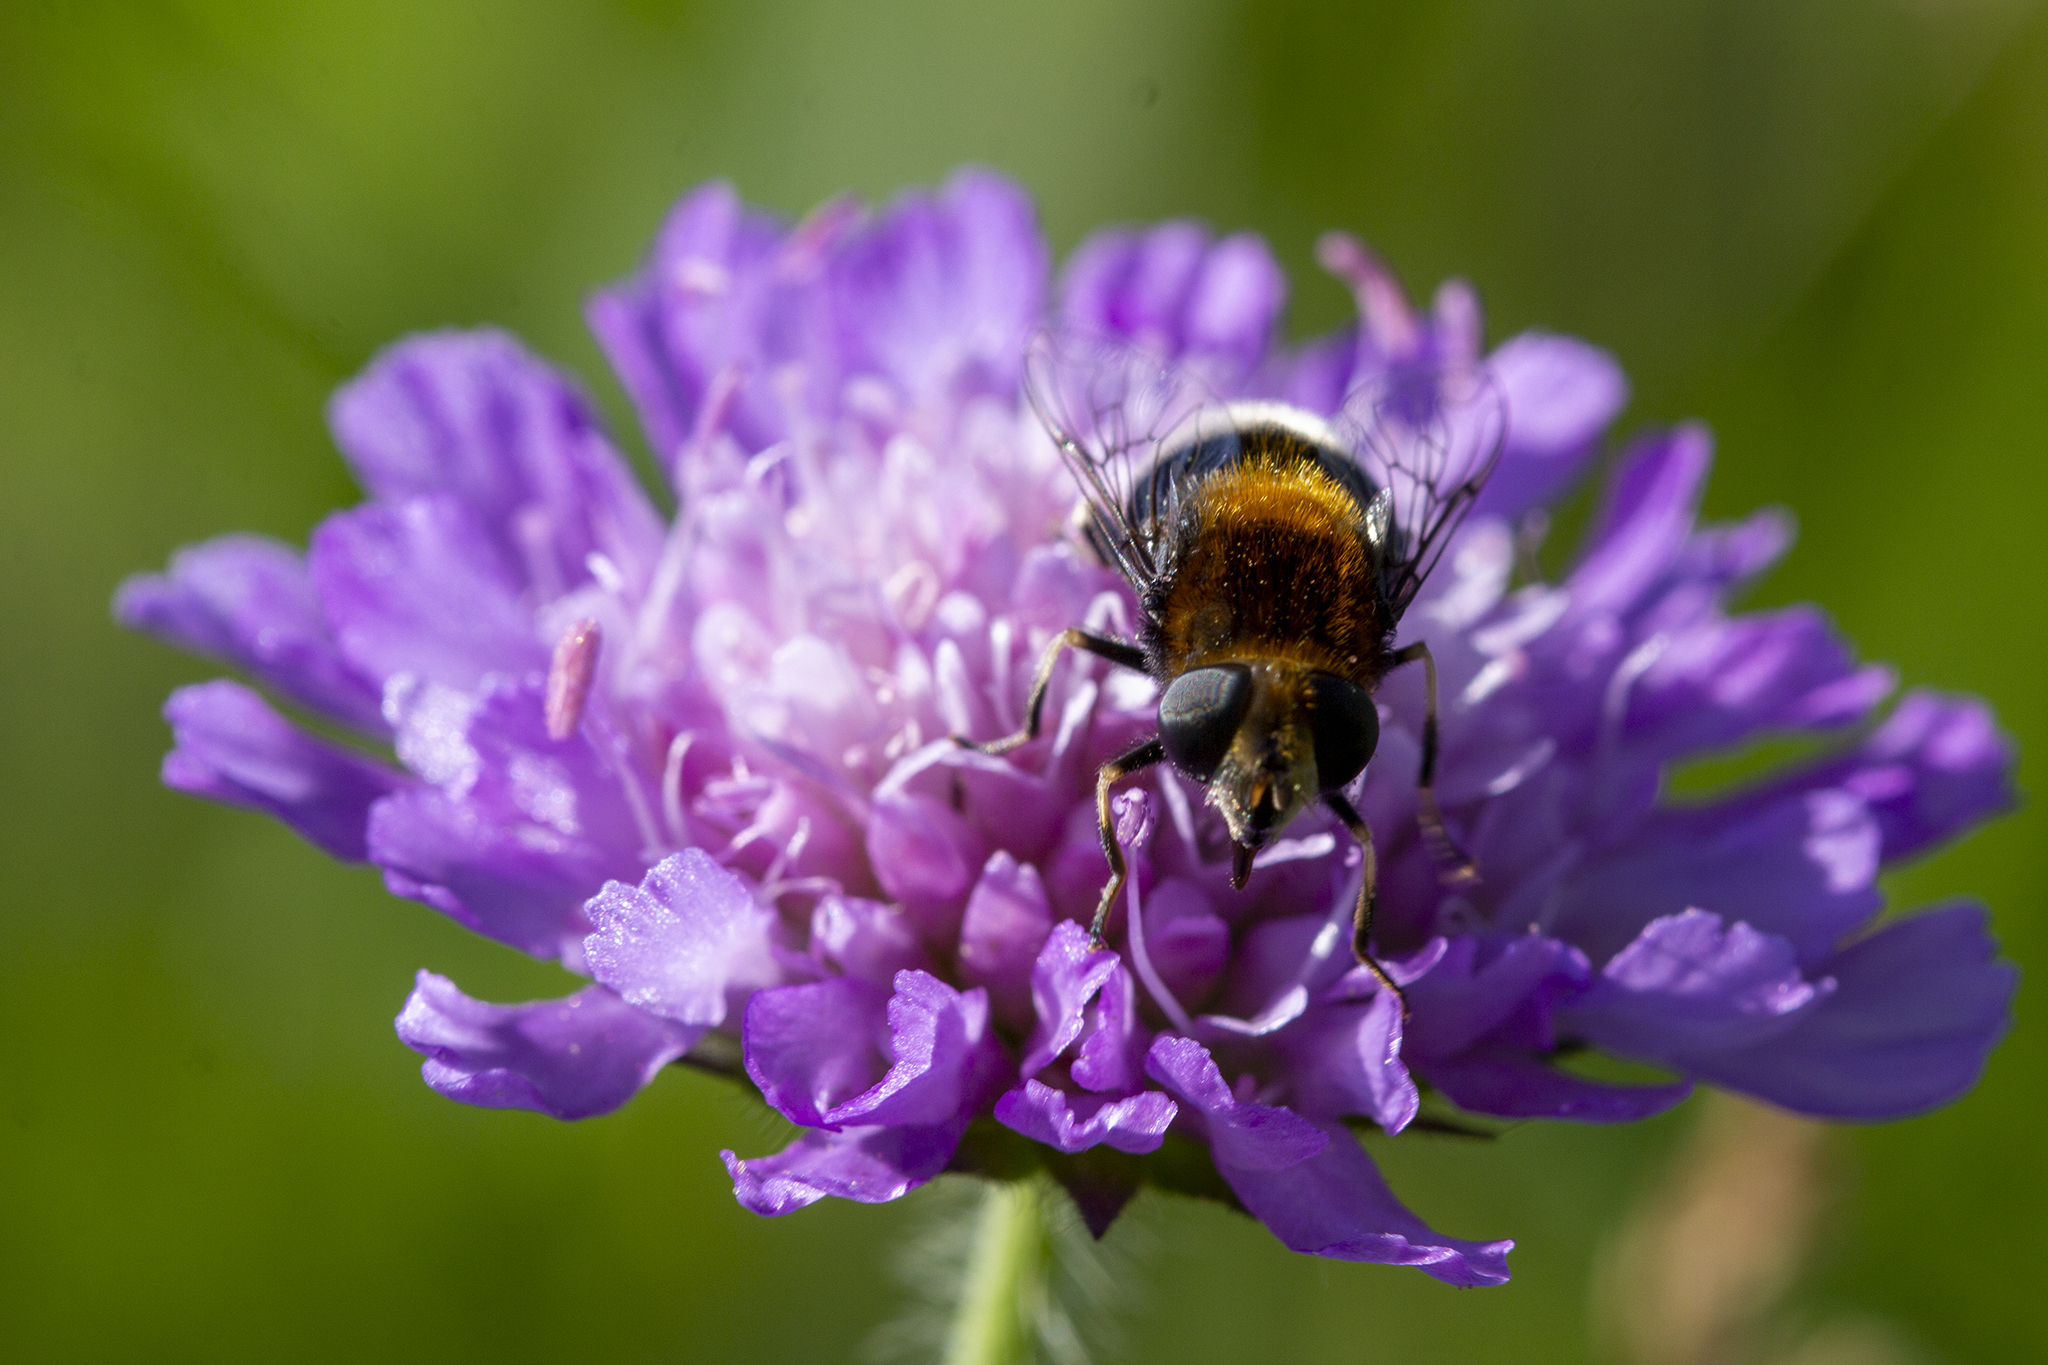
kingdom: Animalia
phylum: Arthropoda
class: Insecta
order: Diptera
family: Syrphidae
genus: Eristalis
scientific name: Eristalis intricaria
